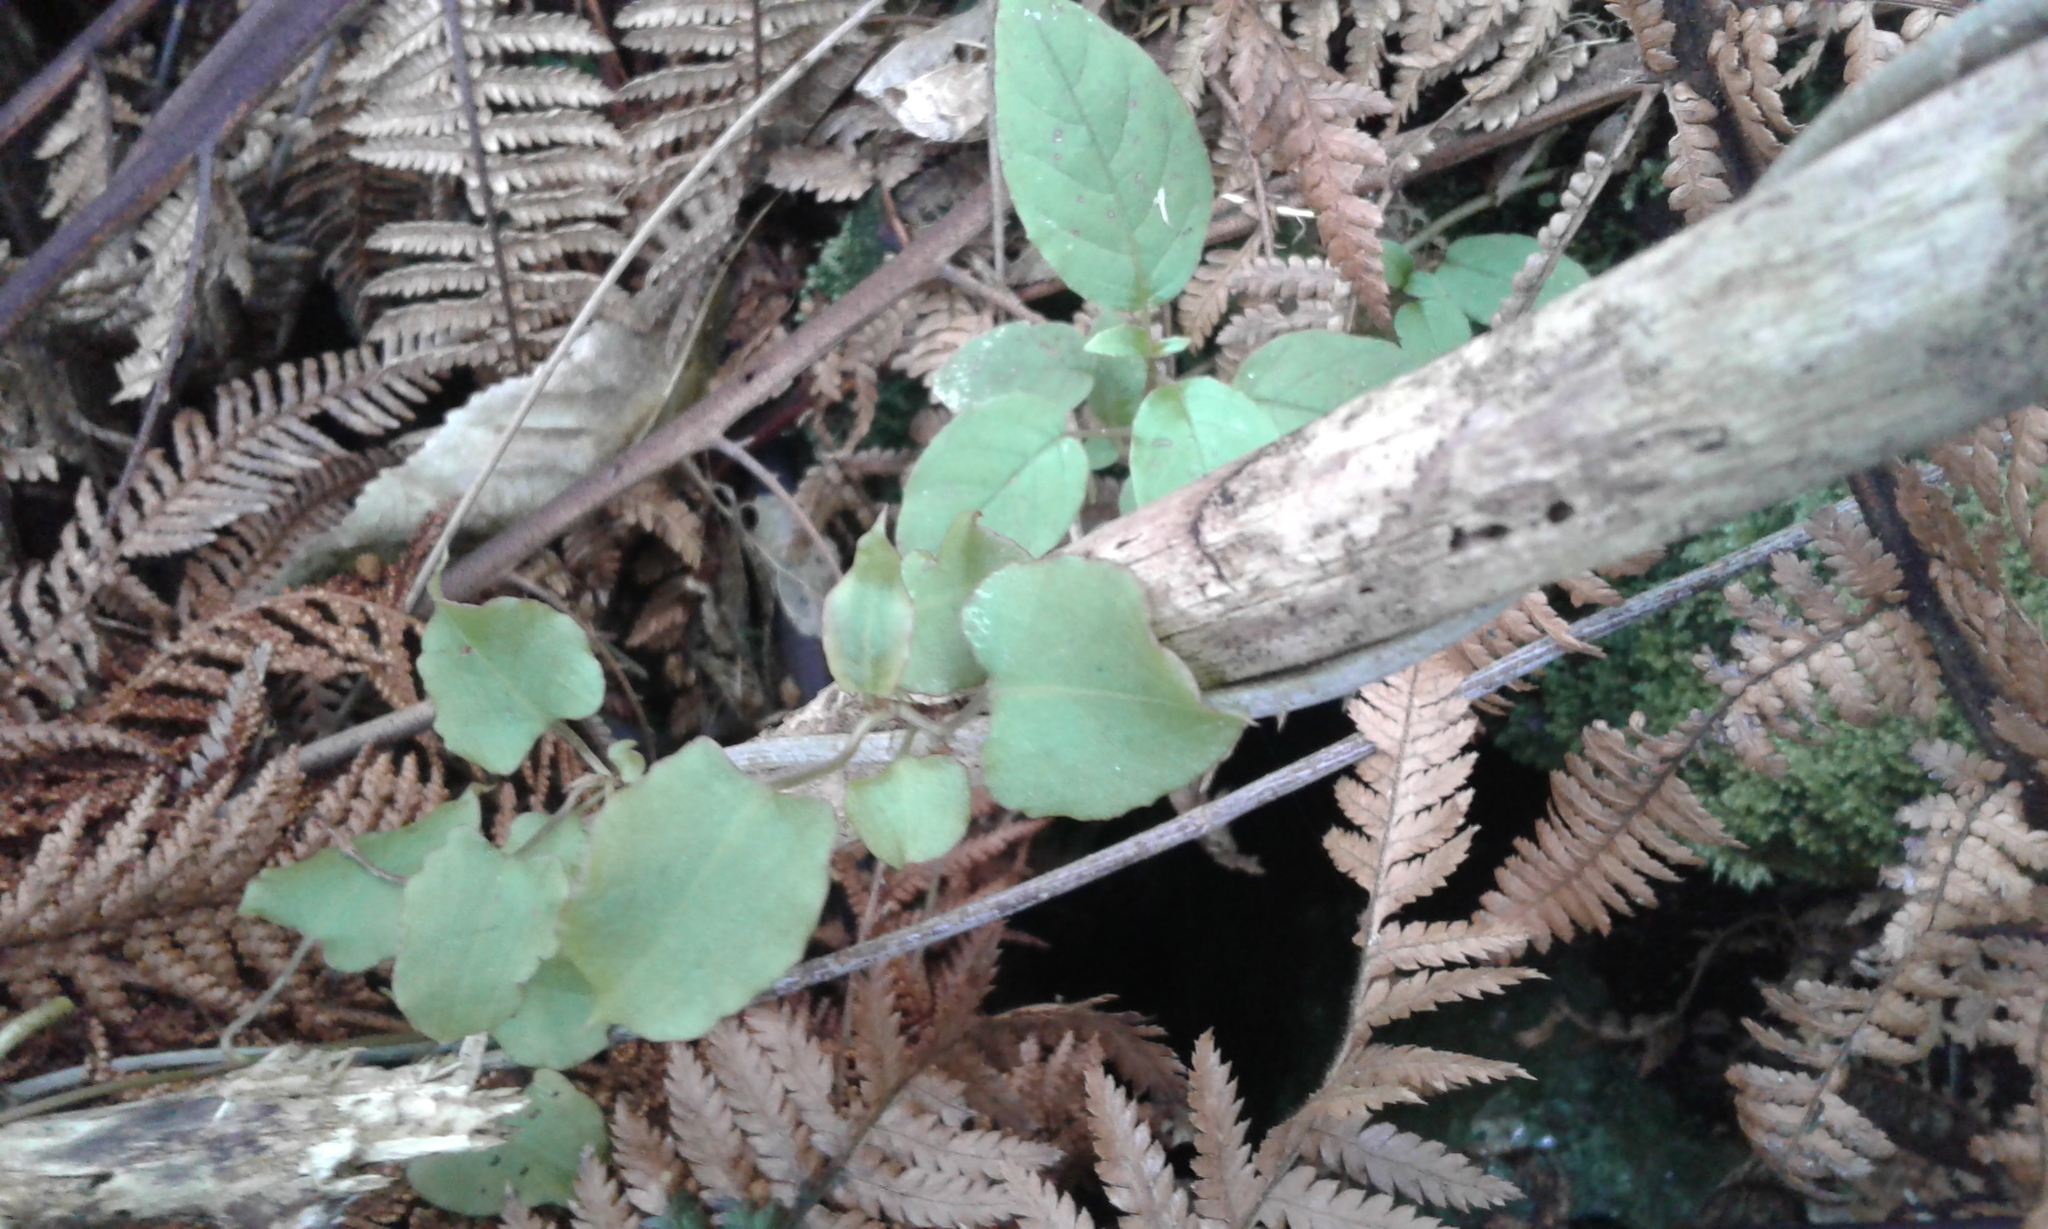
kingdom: Plantae
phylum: Tracheophyta
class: Magnoliopsida
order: Caryophyllales
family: Polygonaceae
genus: Muehlenbeckia
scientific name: Muehlenbeckia australis
